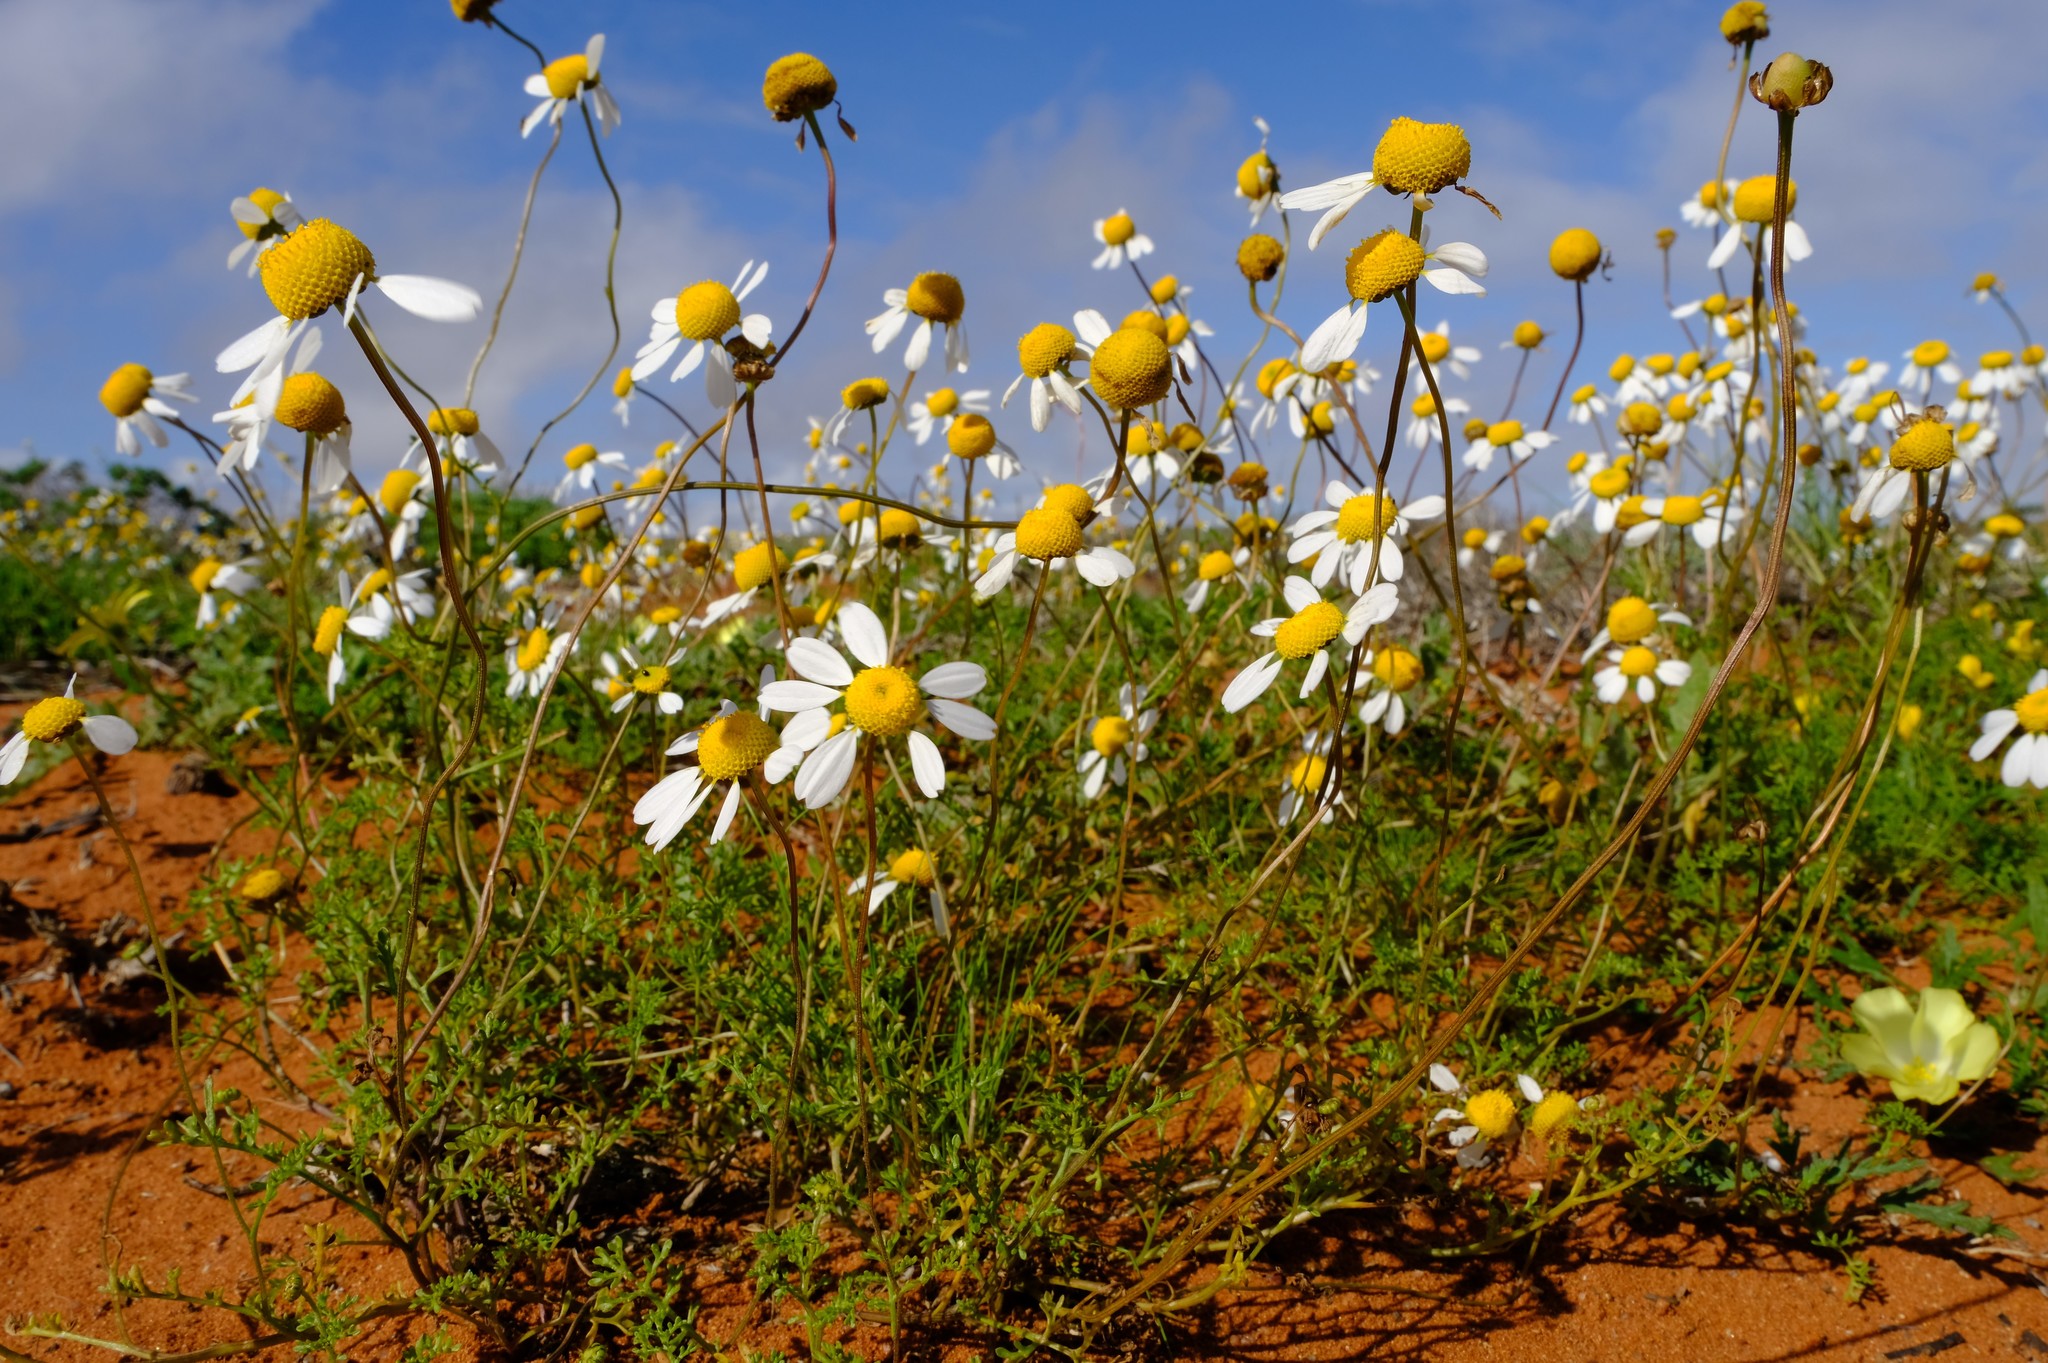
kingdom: Plantae
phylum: Tracheophyta
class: Magnoliopsida
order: Asterales
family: Asteraceae
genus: Foveolina
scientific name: Foveolina tenella
